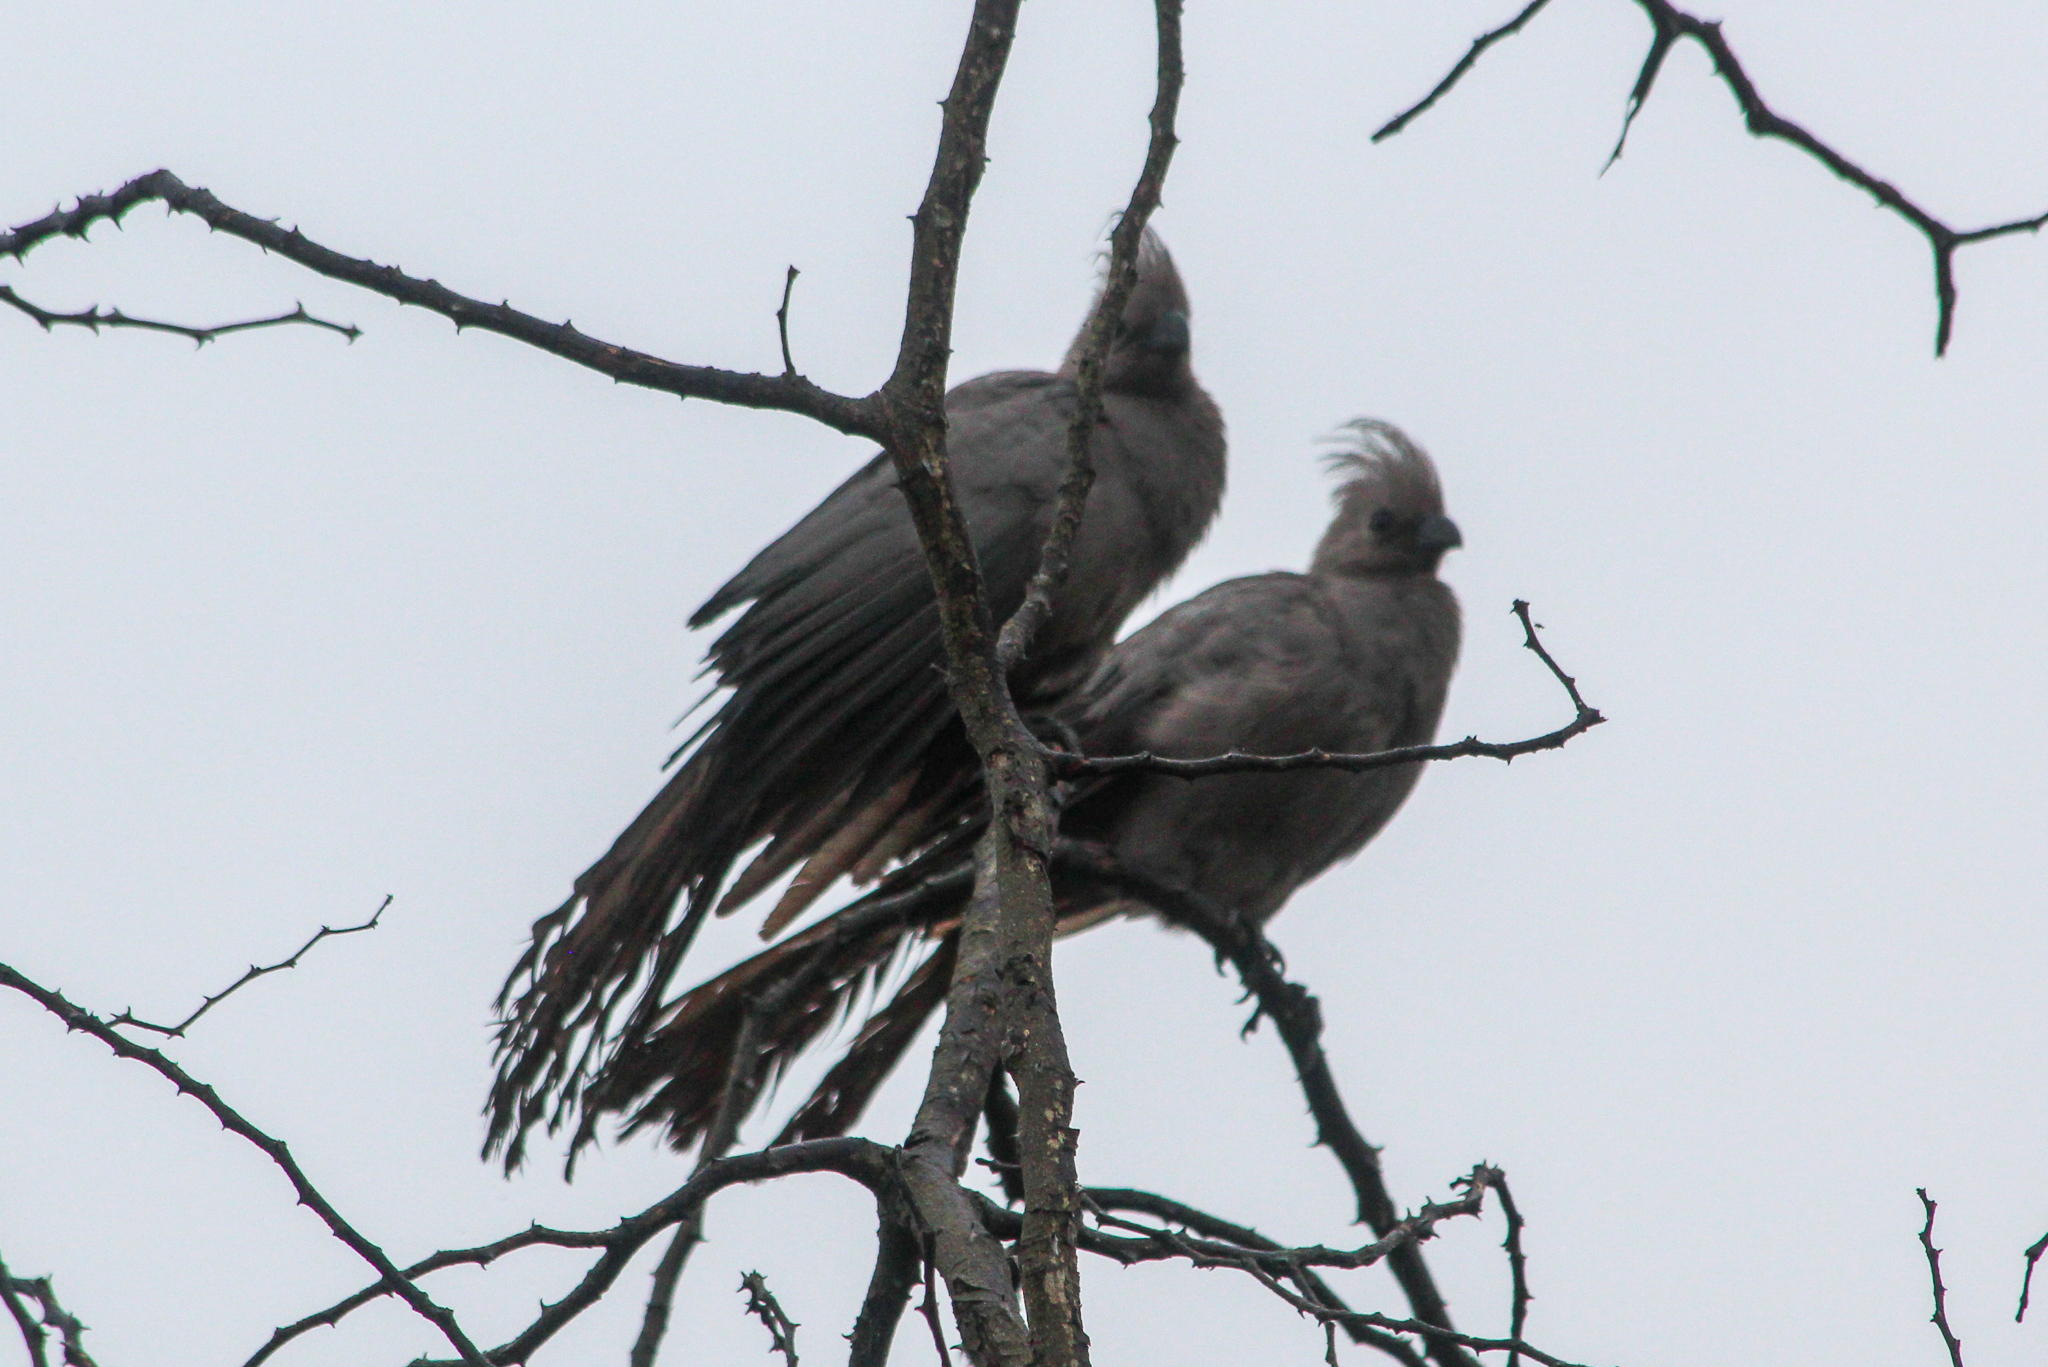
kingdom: Animalia
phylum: Chordata
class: Aves
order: Musophagiformes
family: Musophagidae
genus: Corythaixoides
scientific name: Corythaixoides concolor
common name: Grey go-away-bird
